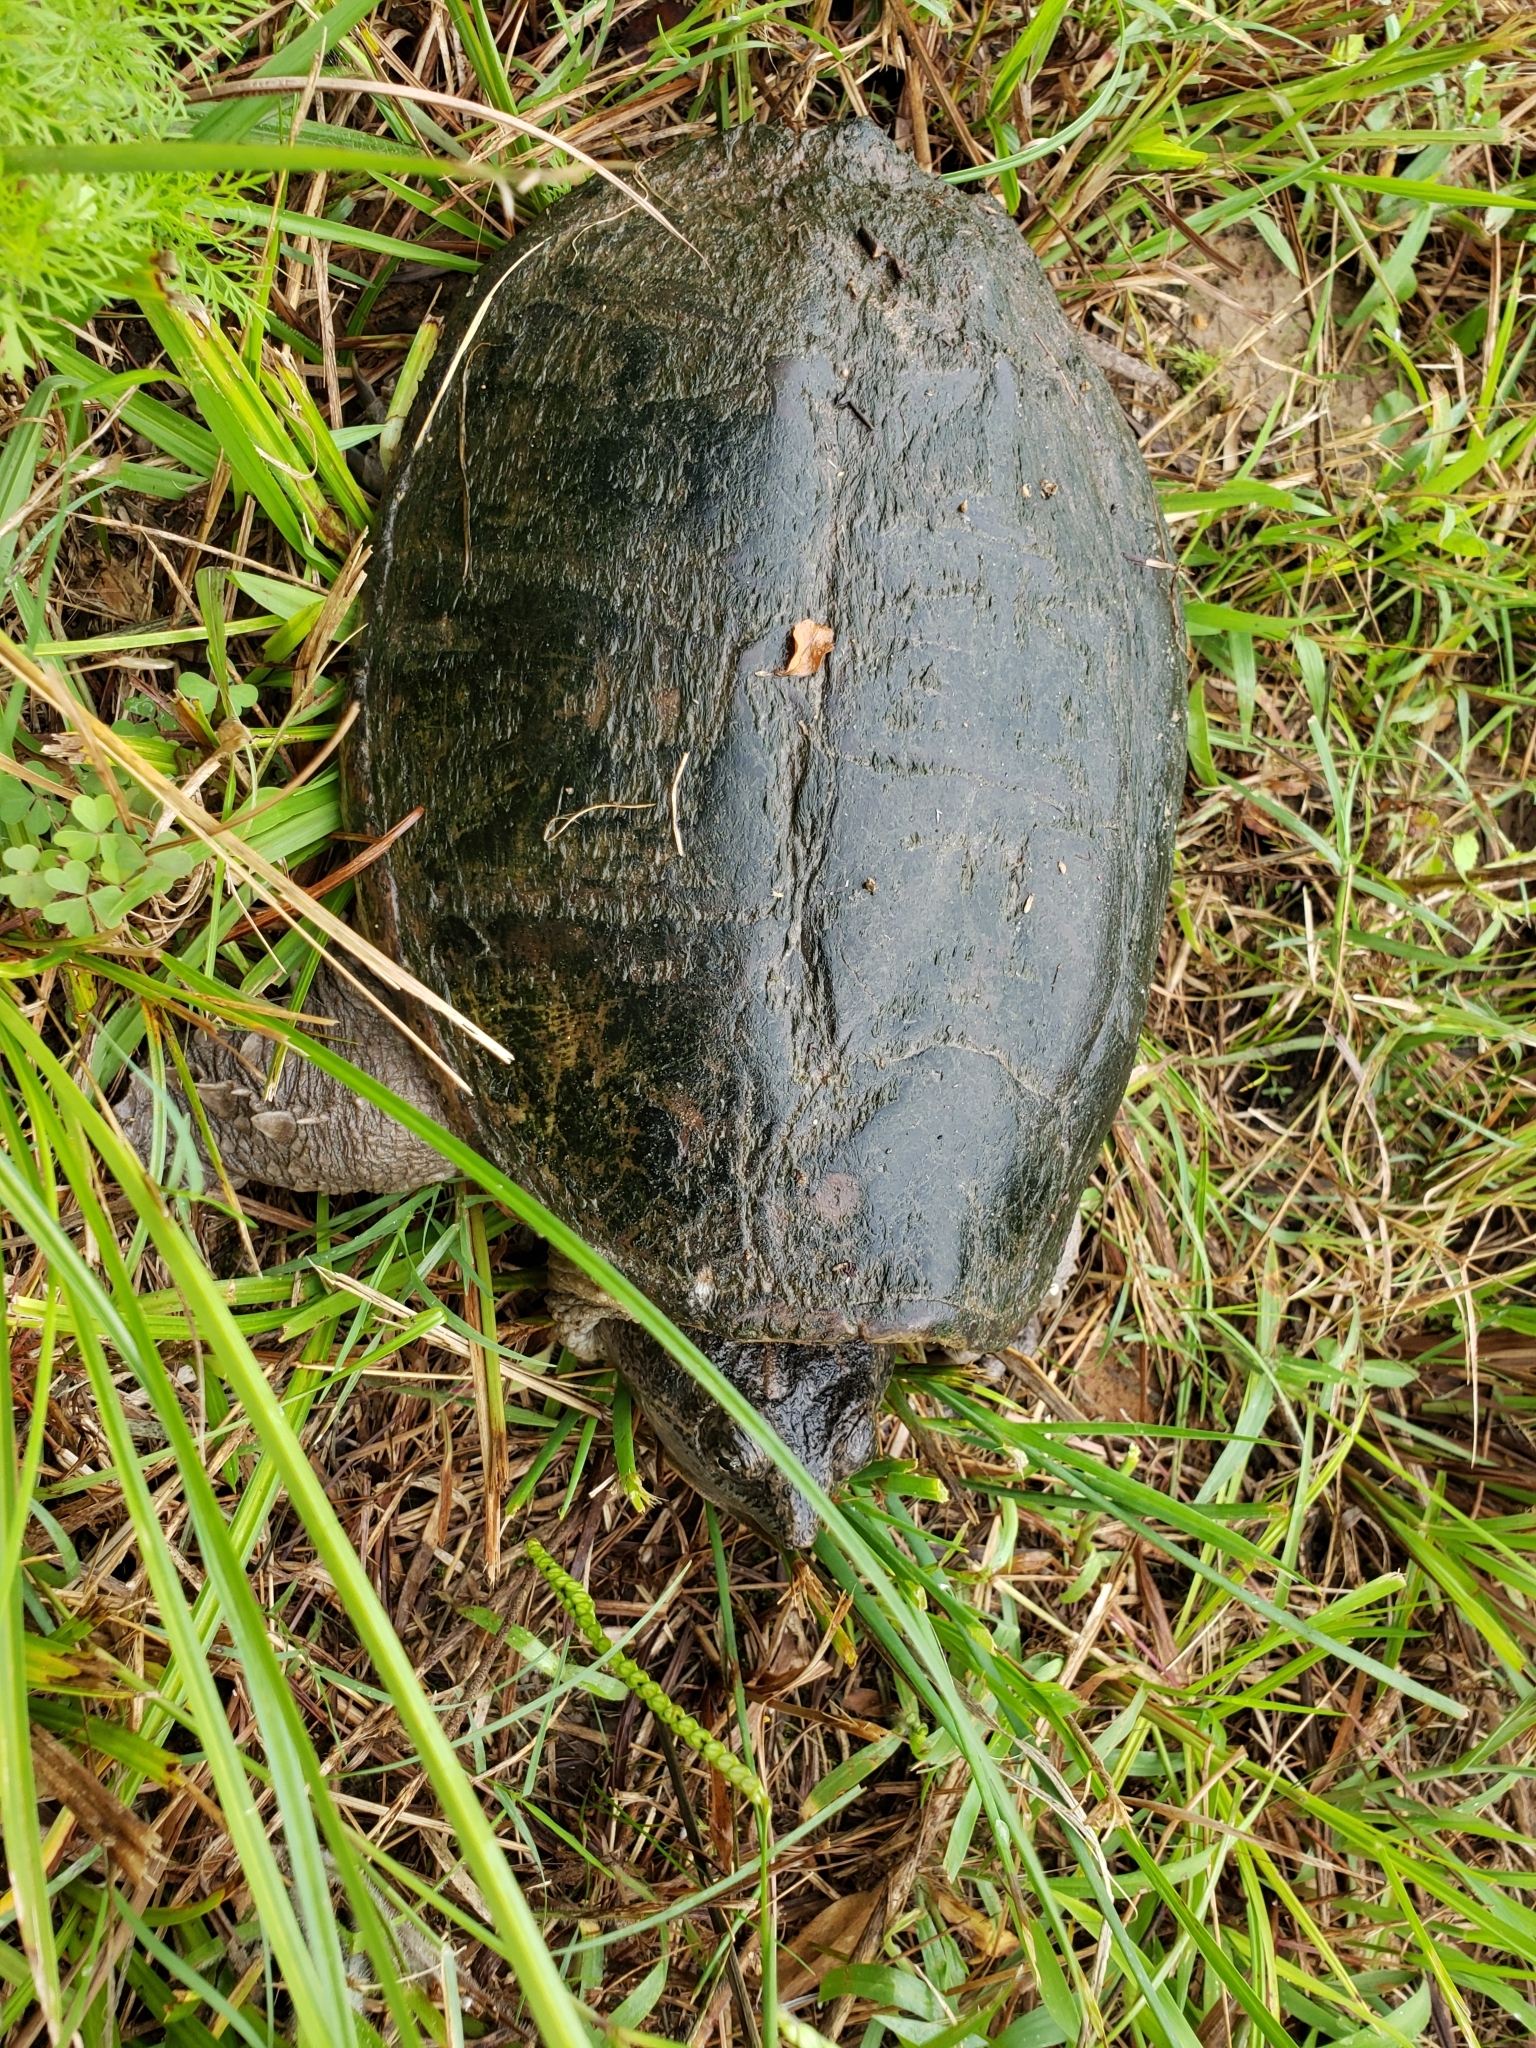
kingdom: Animalia
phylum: Chordata
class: Testudines
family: Chelydridae
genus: Chelydra
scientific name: Chelydra serpentina
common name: Common snapping turtle
